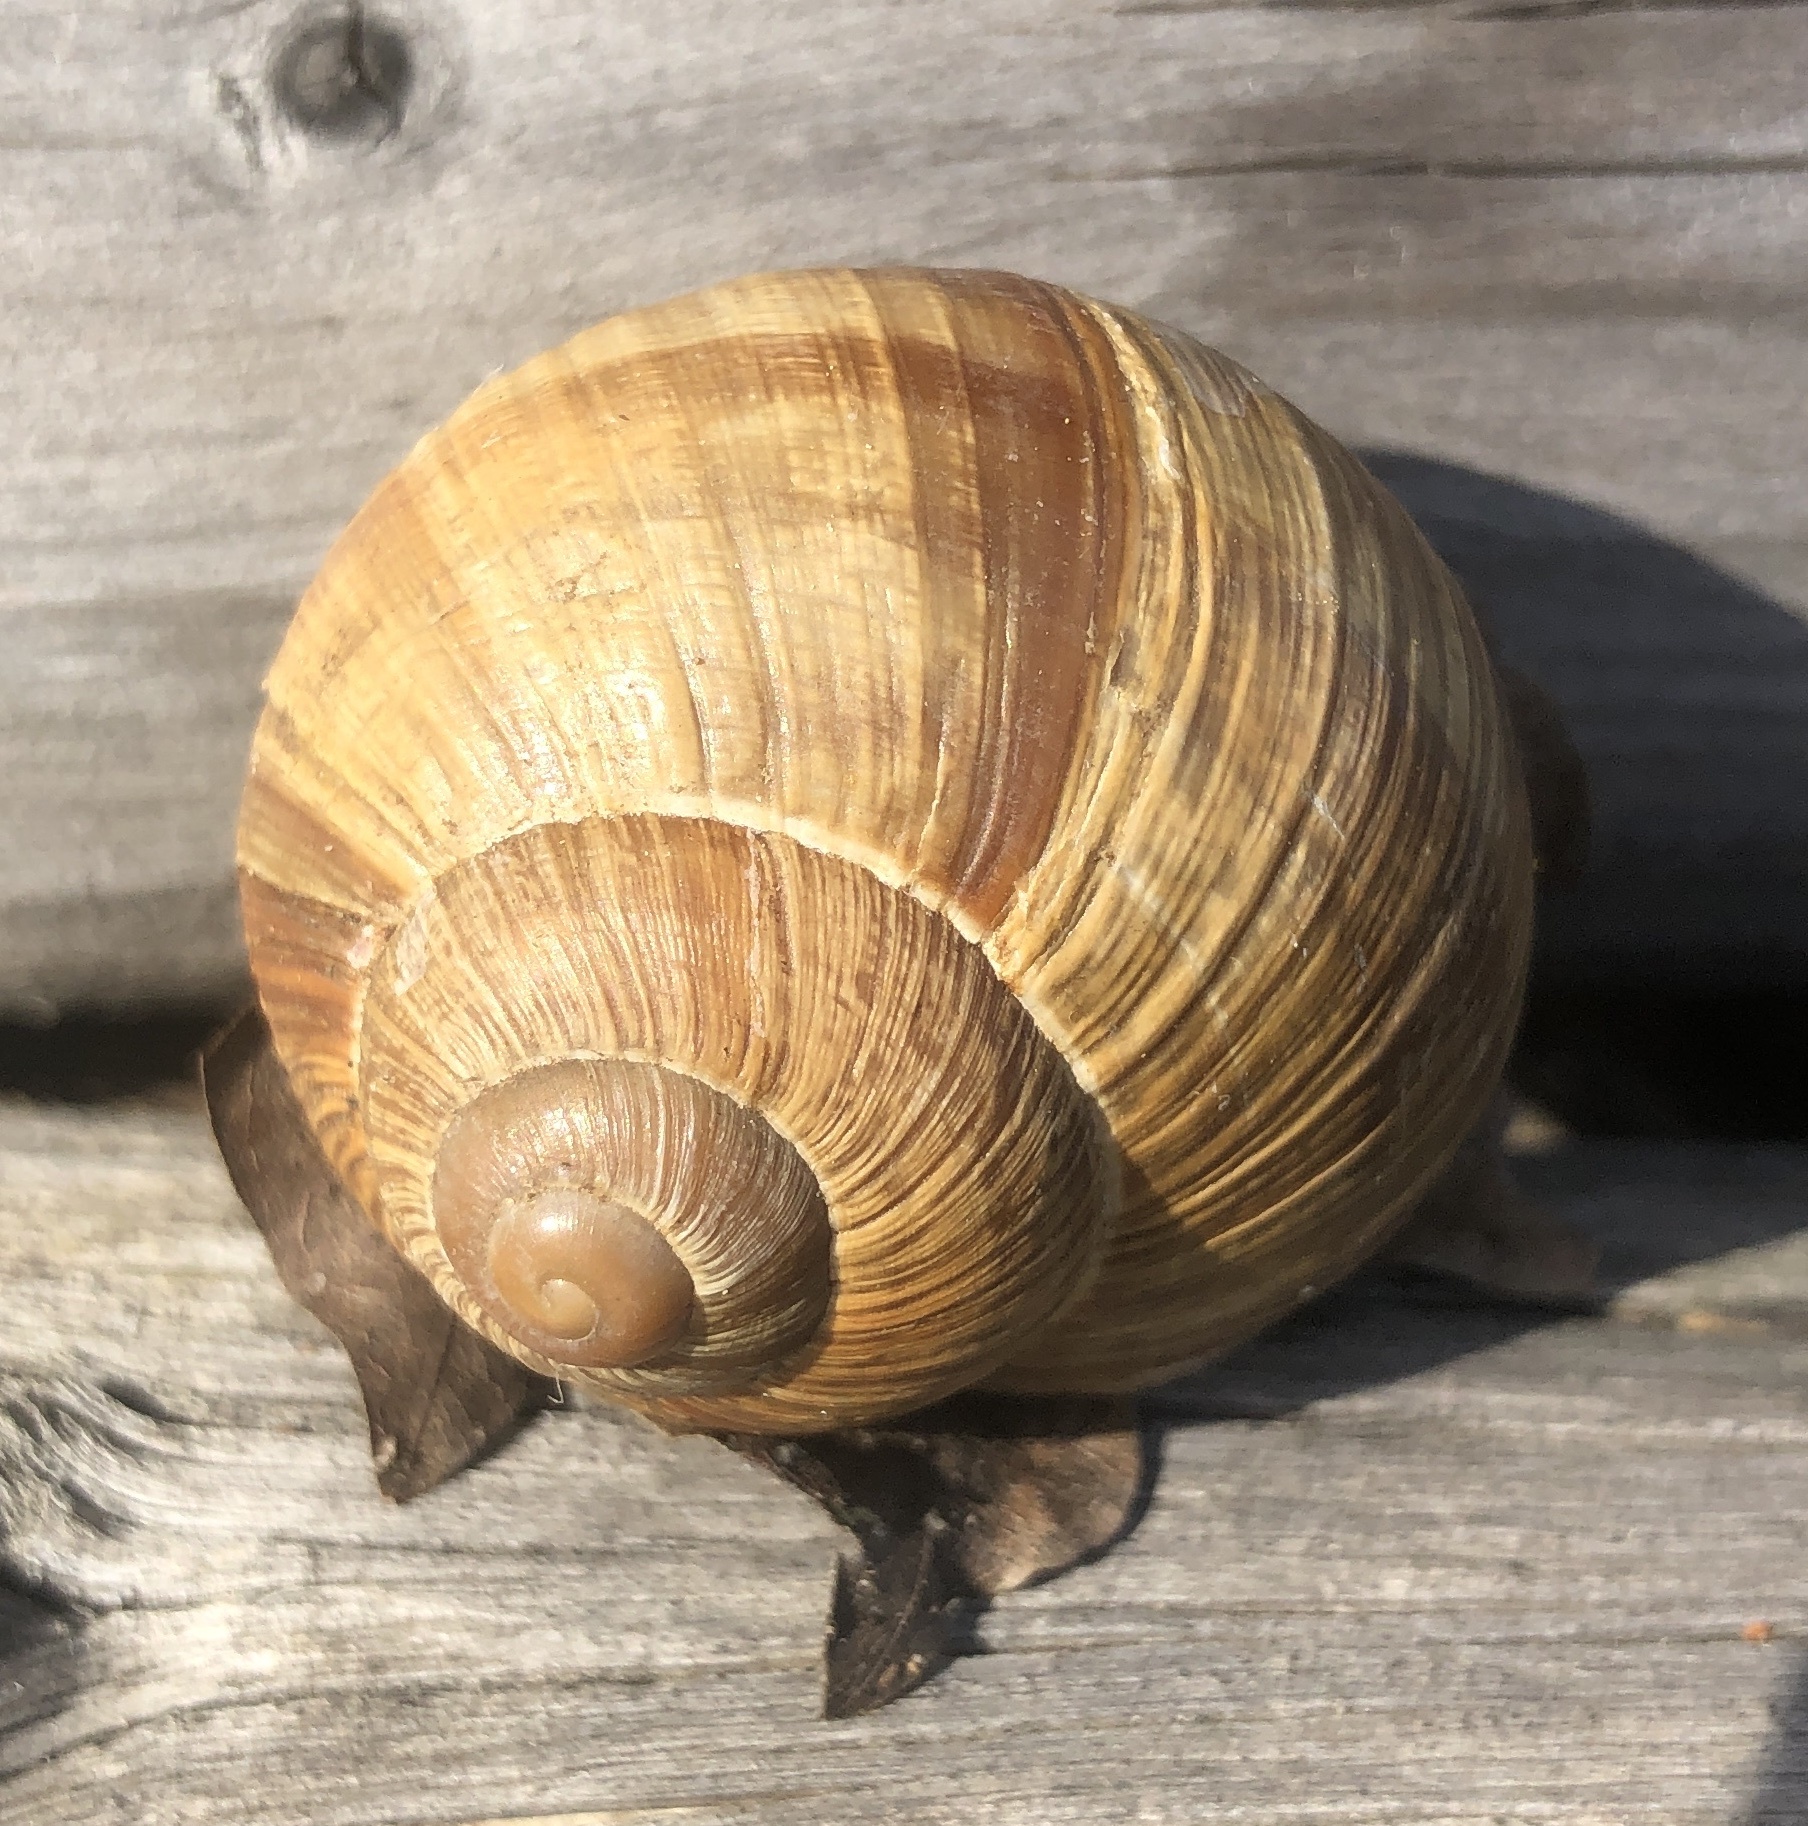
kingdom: Animalia
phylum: Mollusca
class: Gastropoda
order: Stylommatophora
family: Helicidae
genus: Helix
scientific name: Helix pomatia
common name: Roman snail
